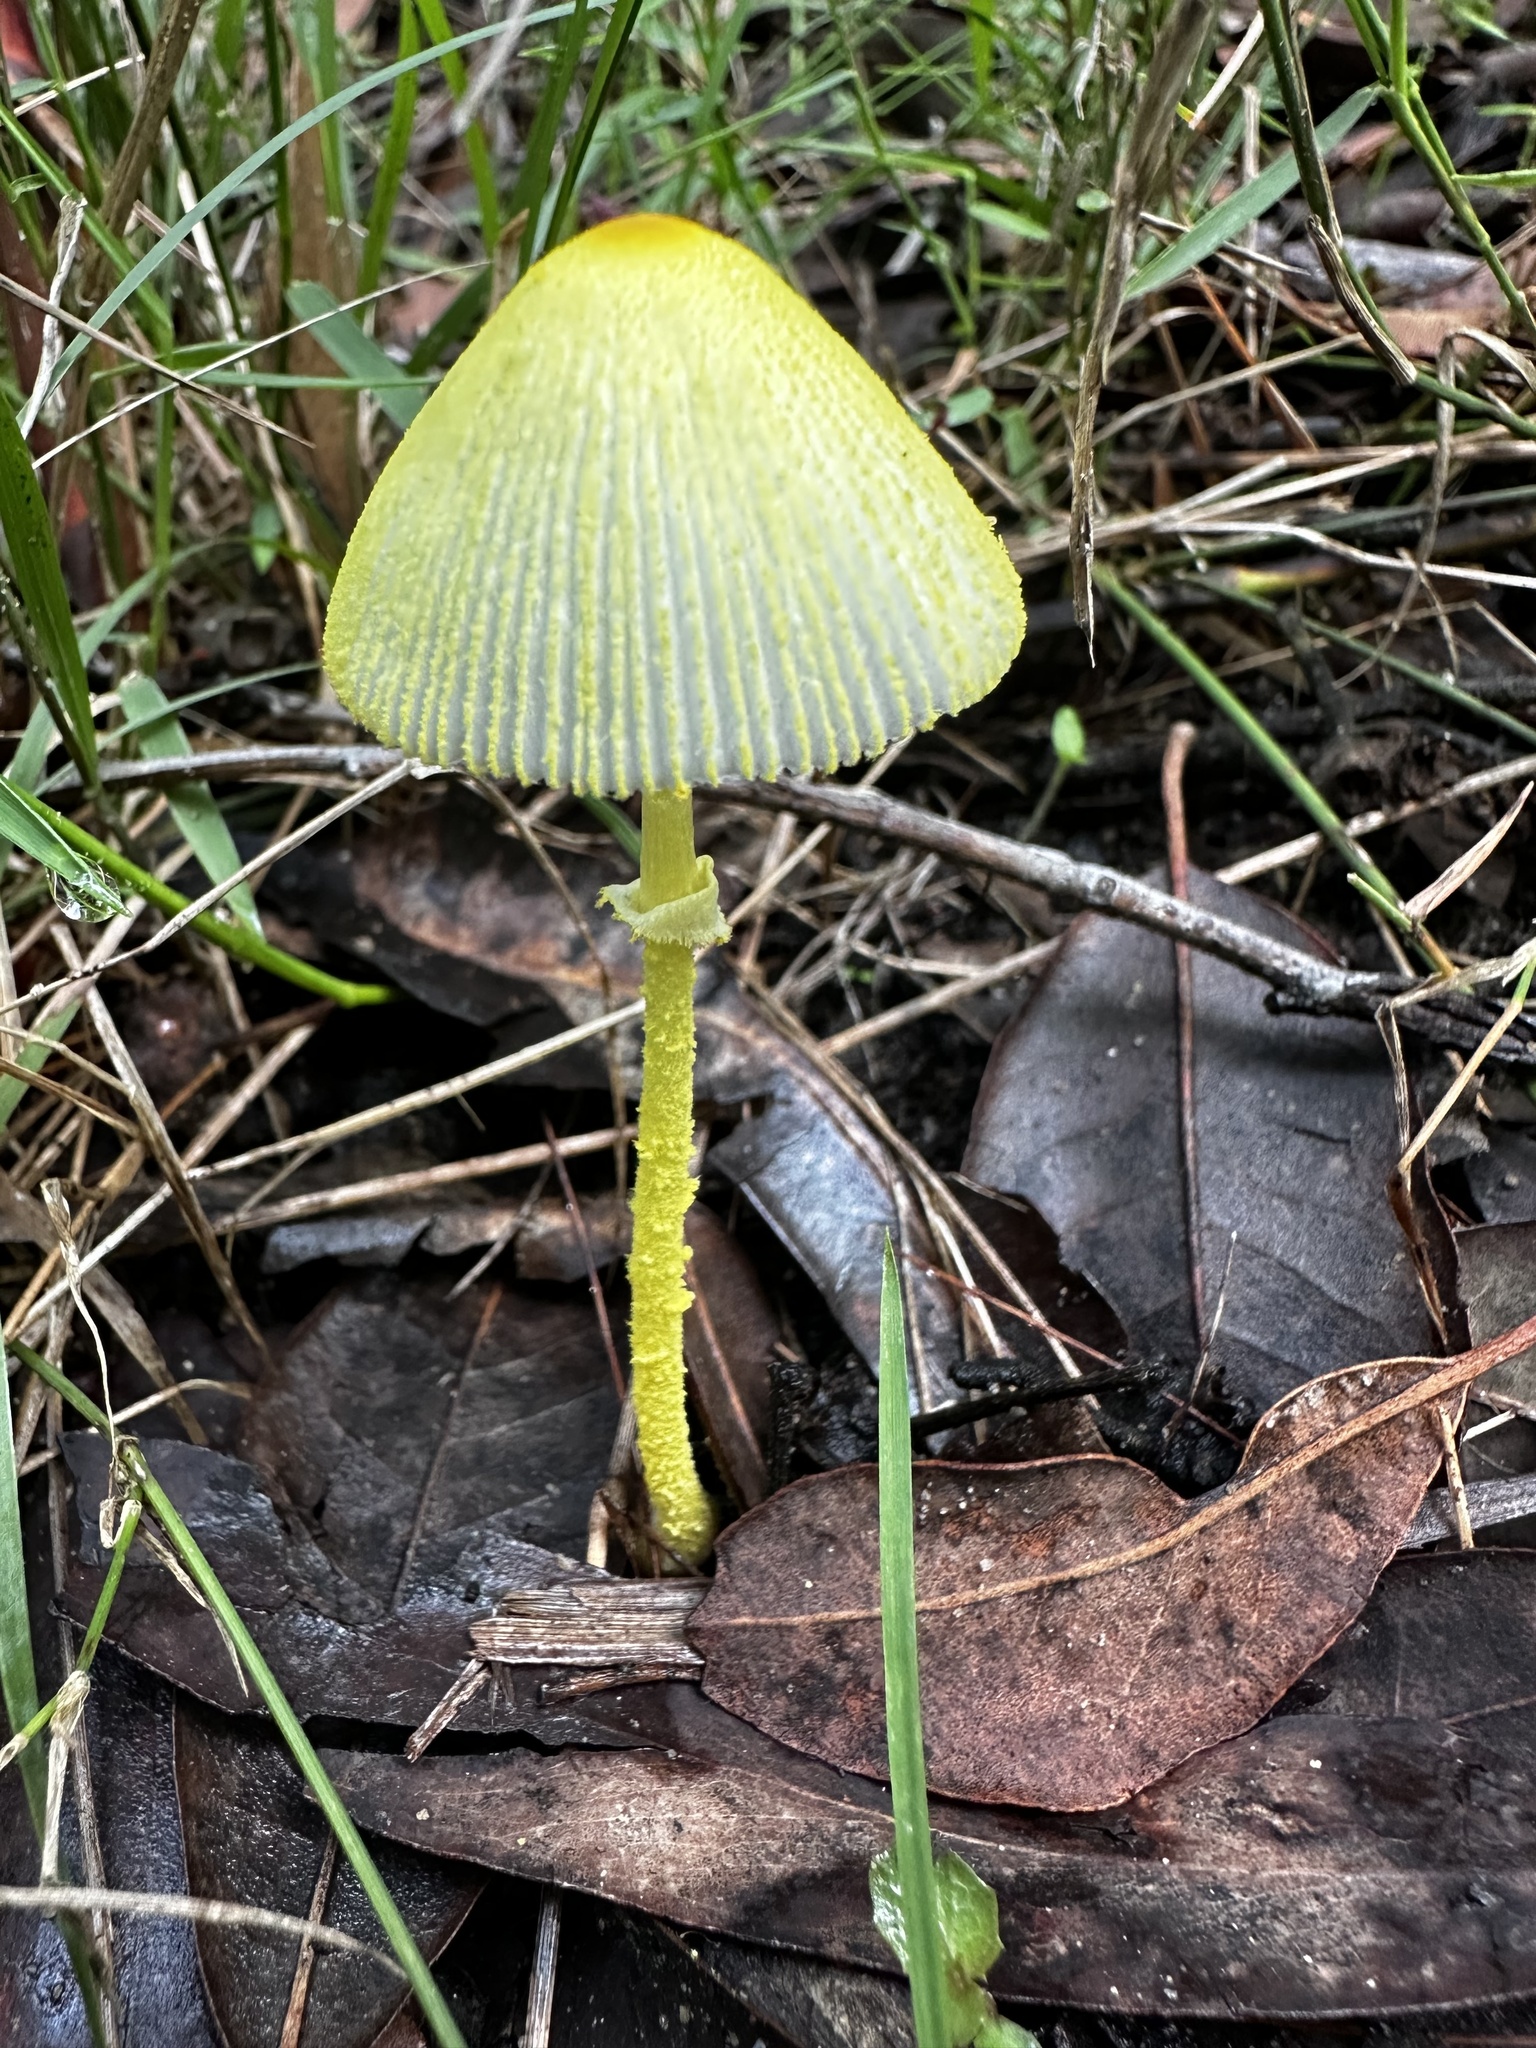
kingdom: Fungi
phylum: Basidiomycota
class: Agaricomycetes
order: Agaricales
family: Agaricaceae
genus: Leucocoprinus
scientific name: Leucocoprinus fragilissimus
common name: Fragile dapperling
